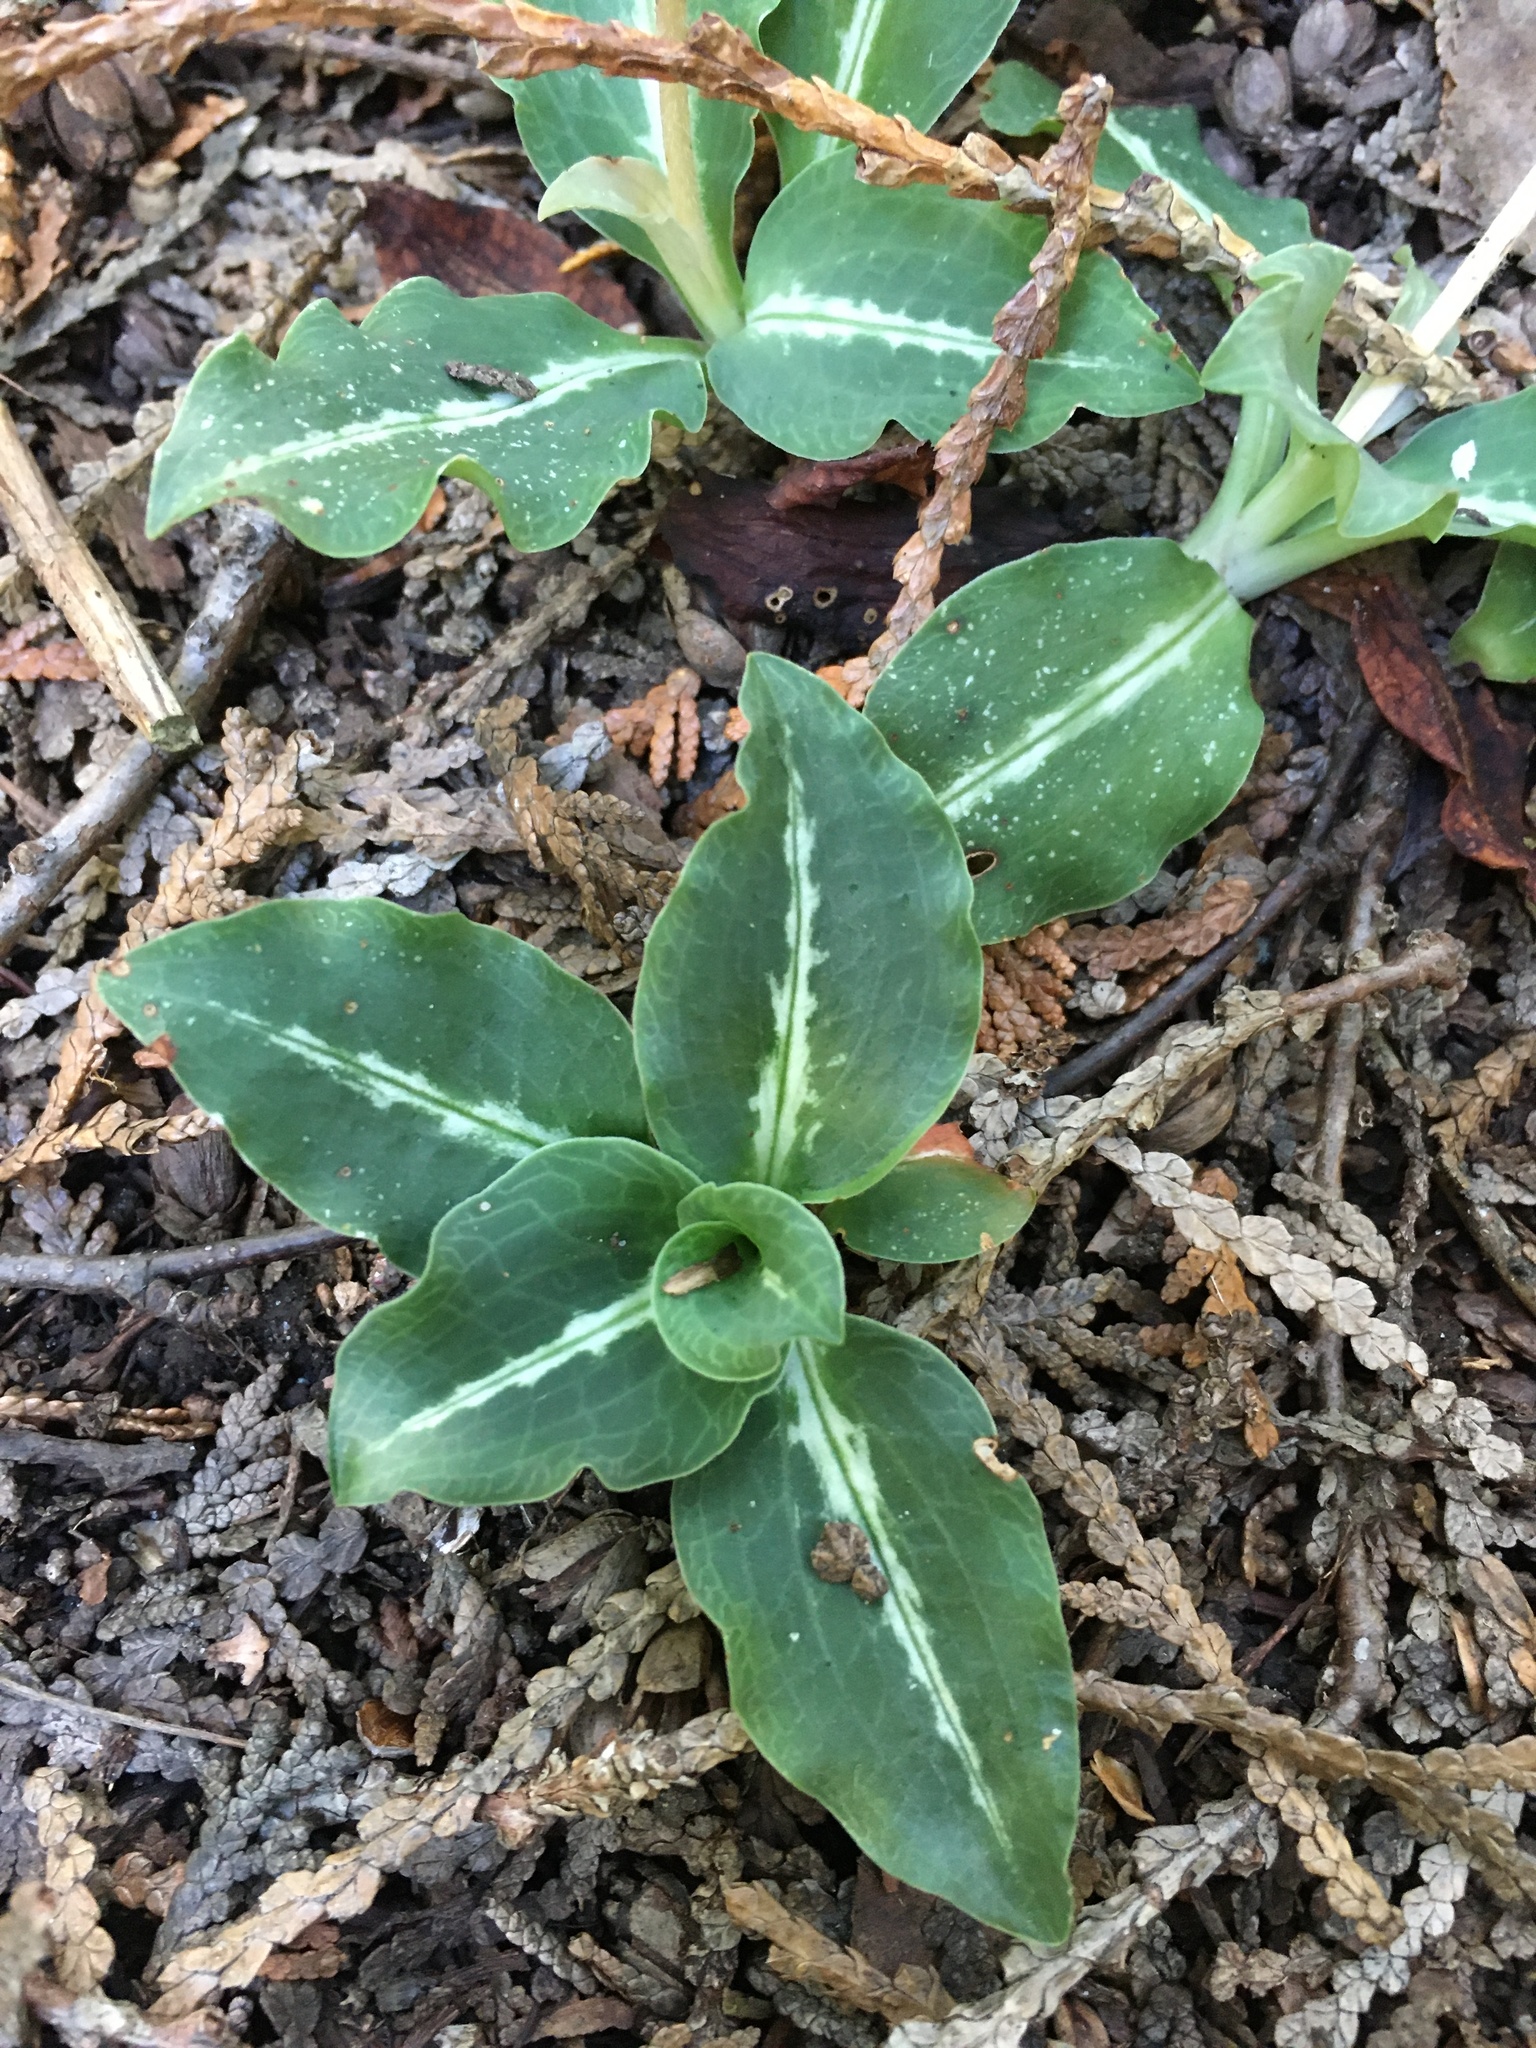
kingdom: Plantae
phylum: Tracheophyta
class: Liliopsida
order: Asparagales
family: Orchidaceae
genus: Goodyera
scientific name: Goodyera oblongifolia
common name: Giant rattlesnake-plantain
